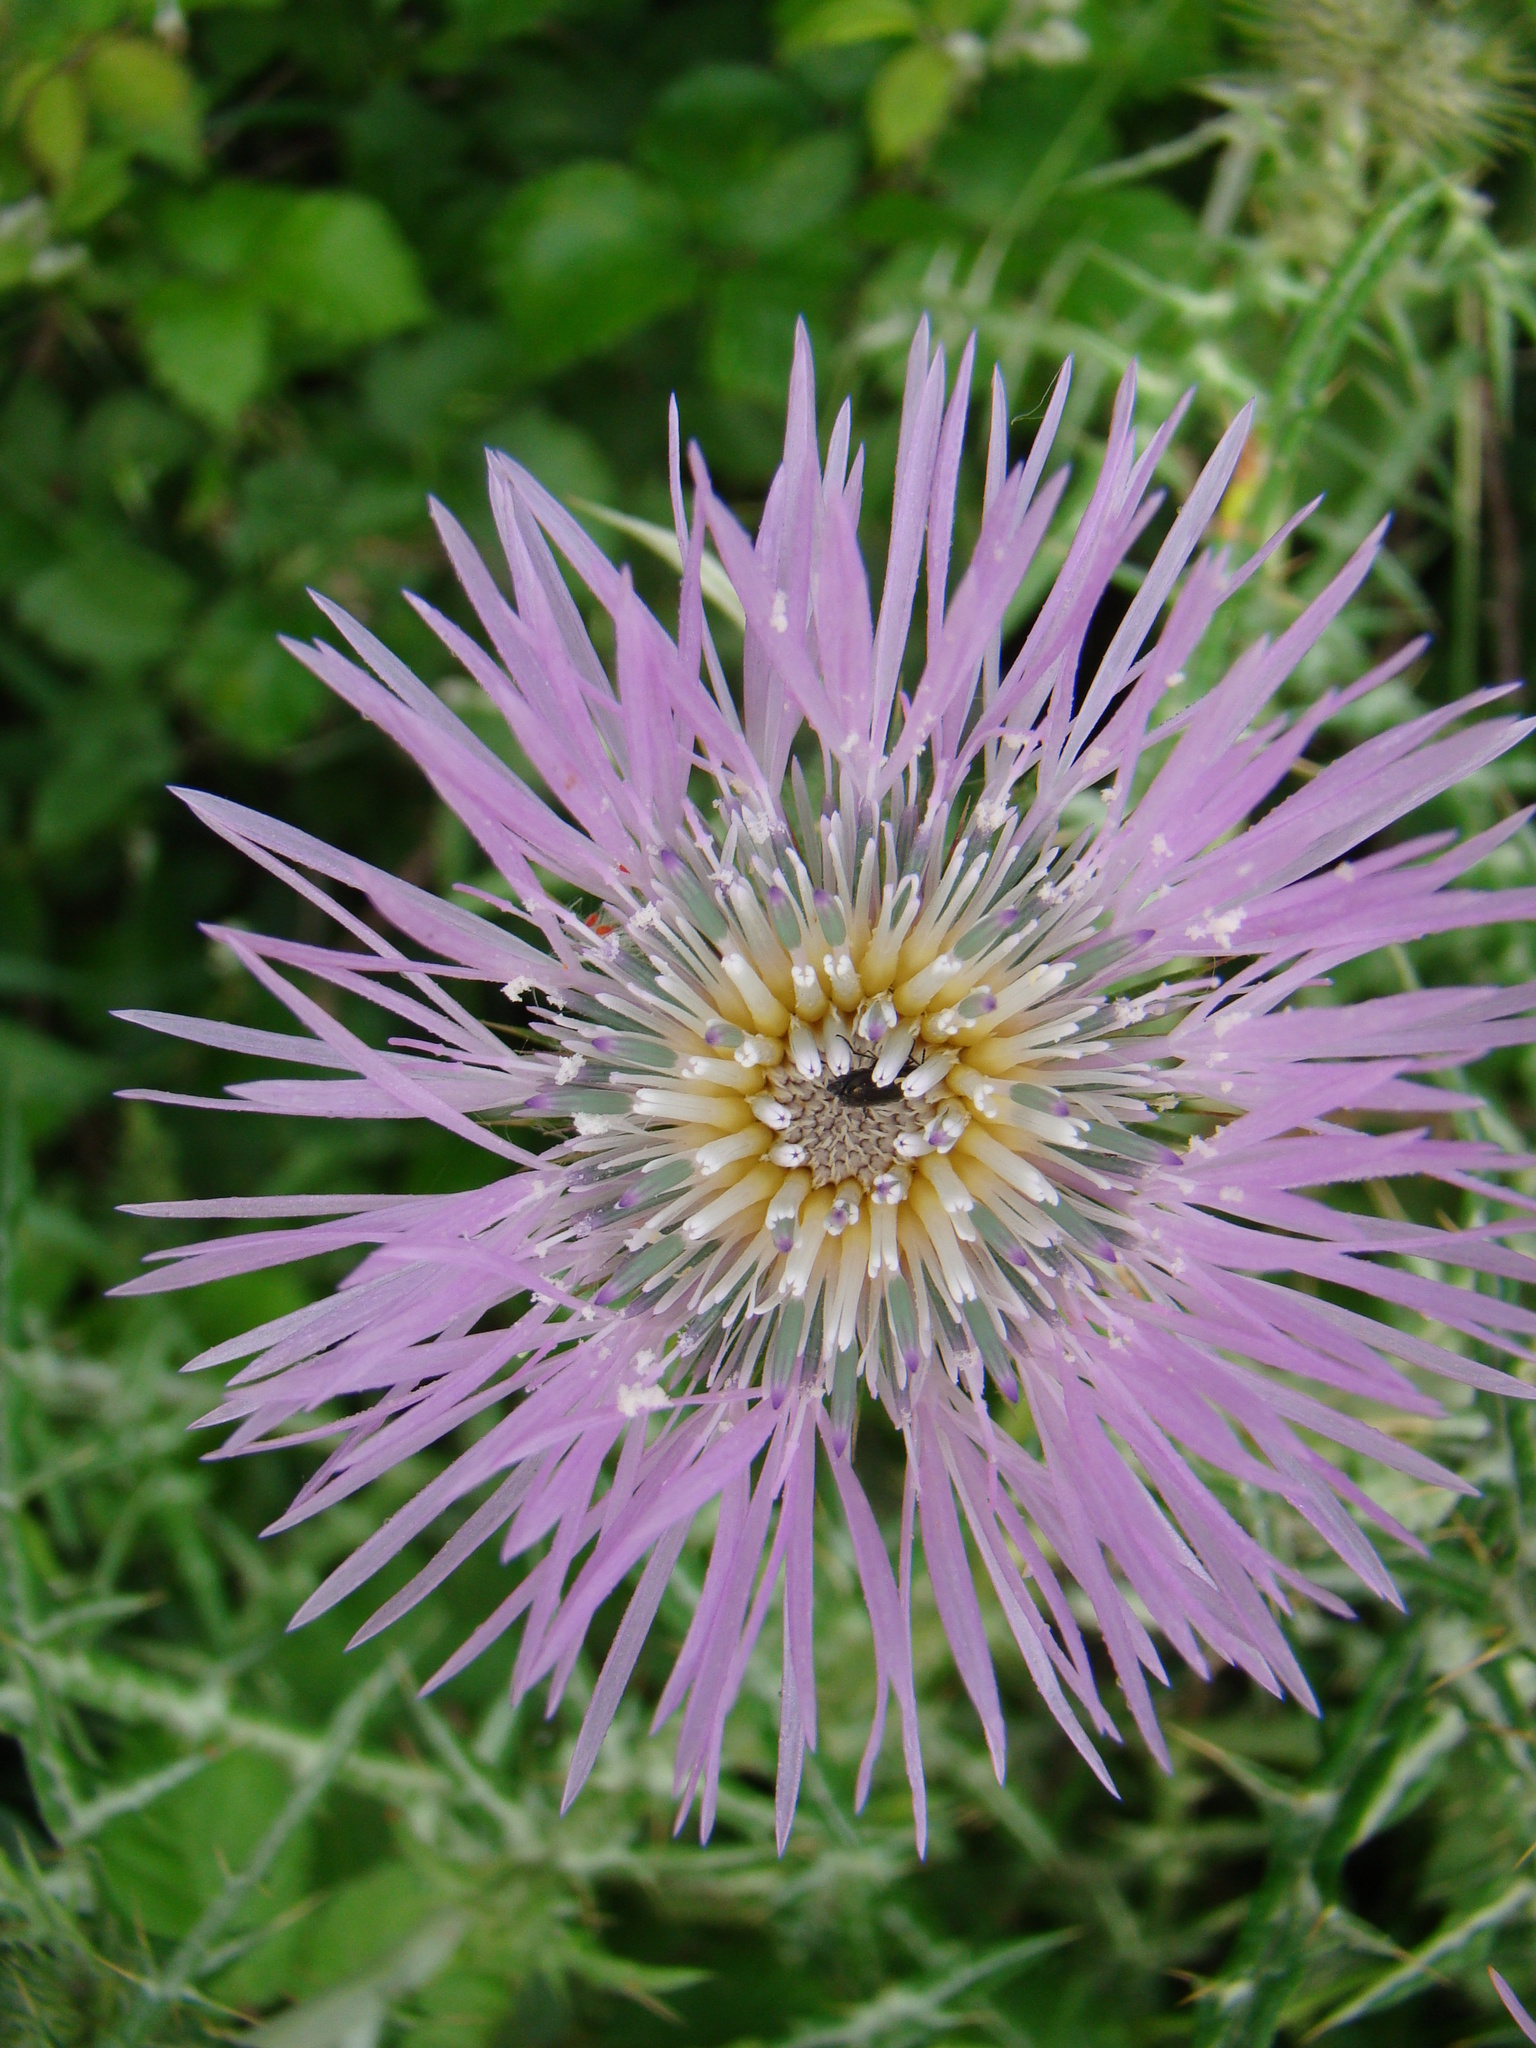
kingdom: Plantae
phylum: Tracheophyta
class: Magnoliopsida
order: Asterales
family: Asteraceae
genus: Galactites
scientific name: Galactites tomentosa
